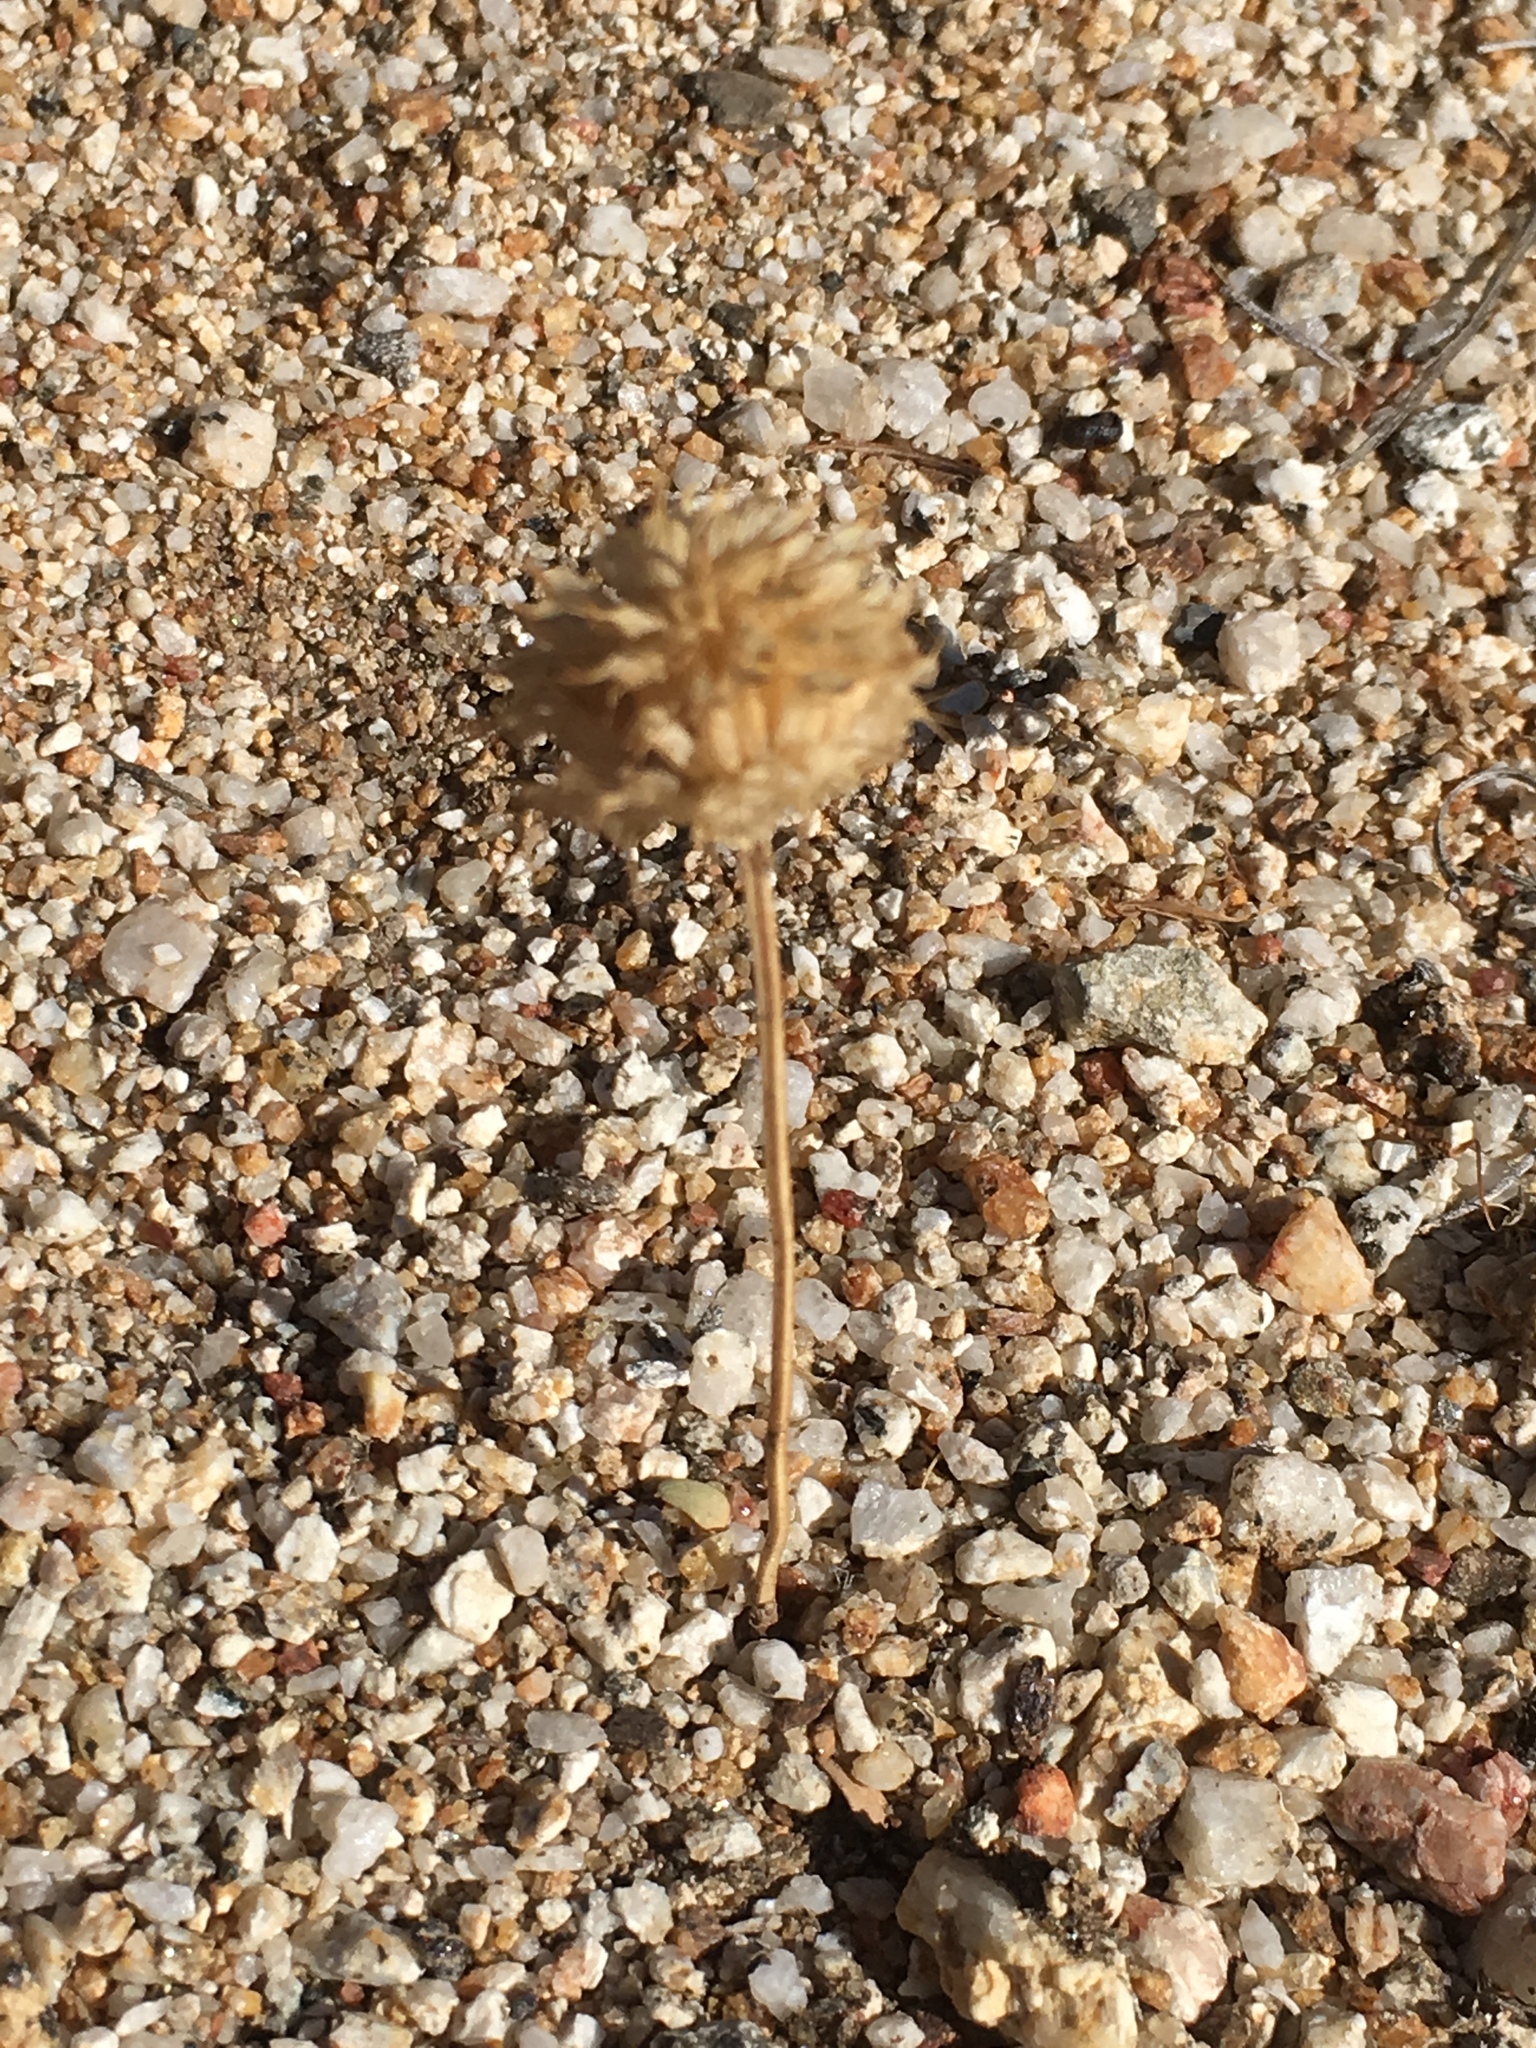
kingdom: Plantae
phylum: Tracheophyta
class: Magnoliopsida
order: Lamiales
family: Lamiaceae
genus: Salvia
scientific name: Salvia columbariae
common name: Chia
